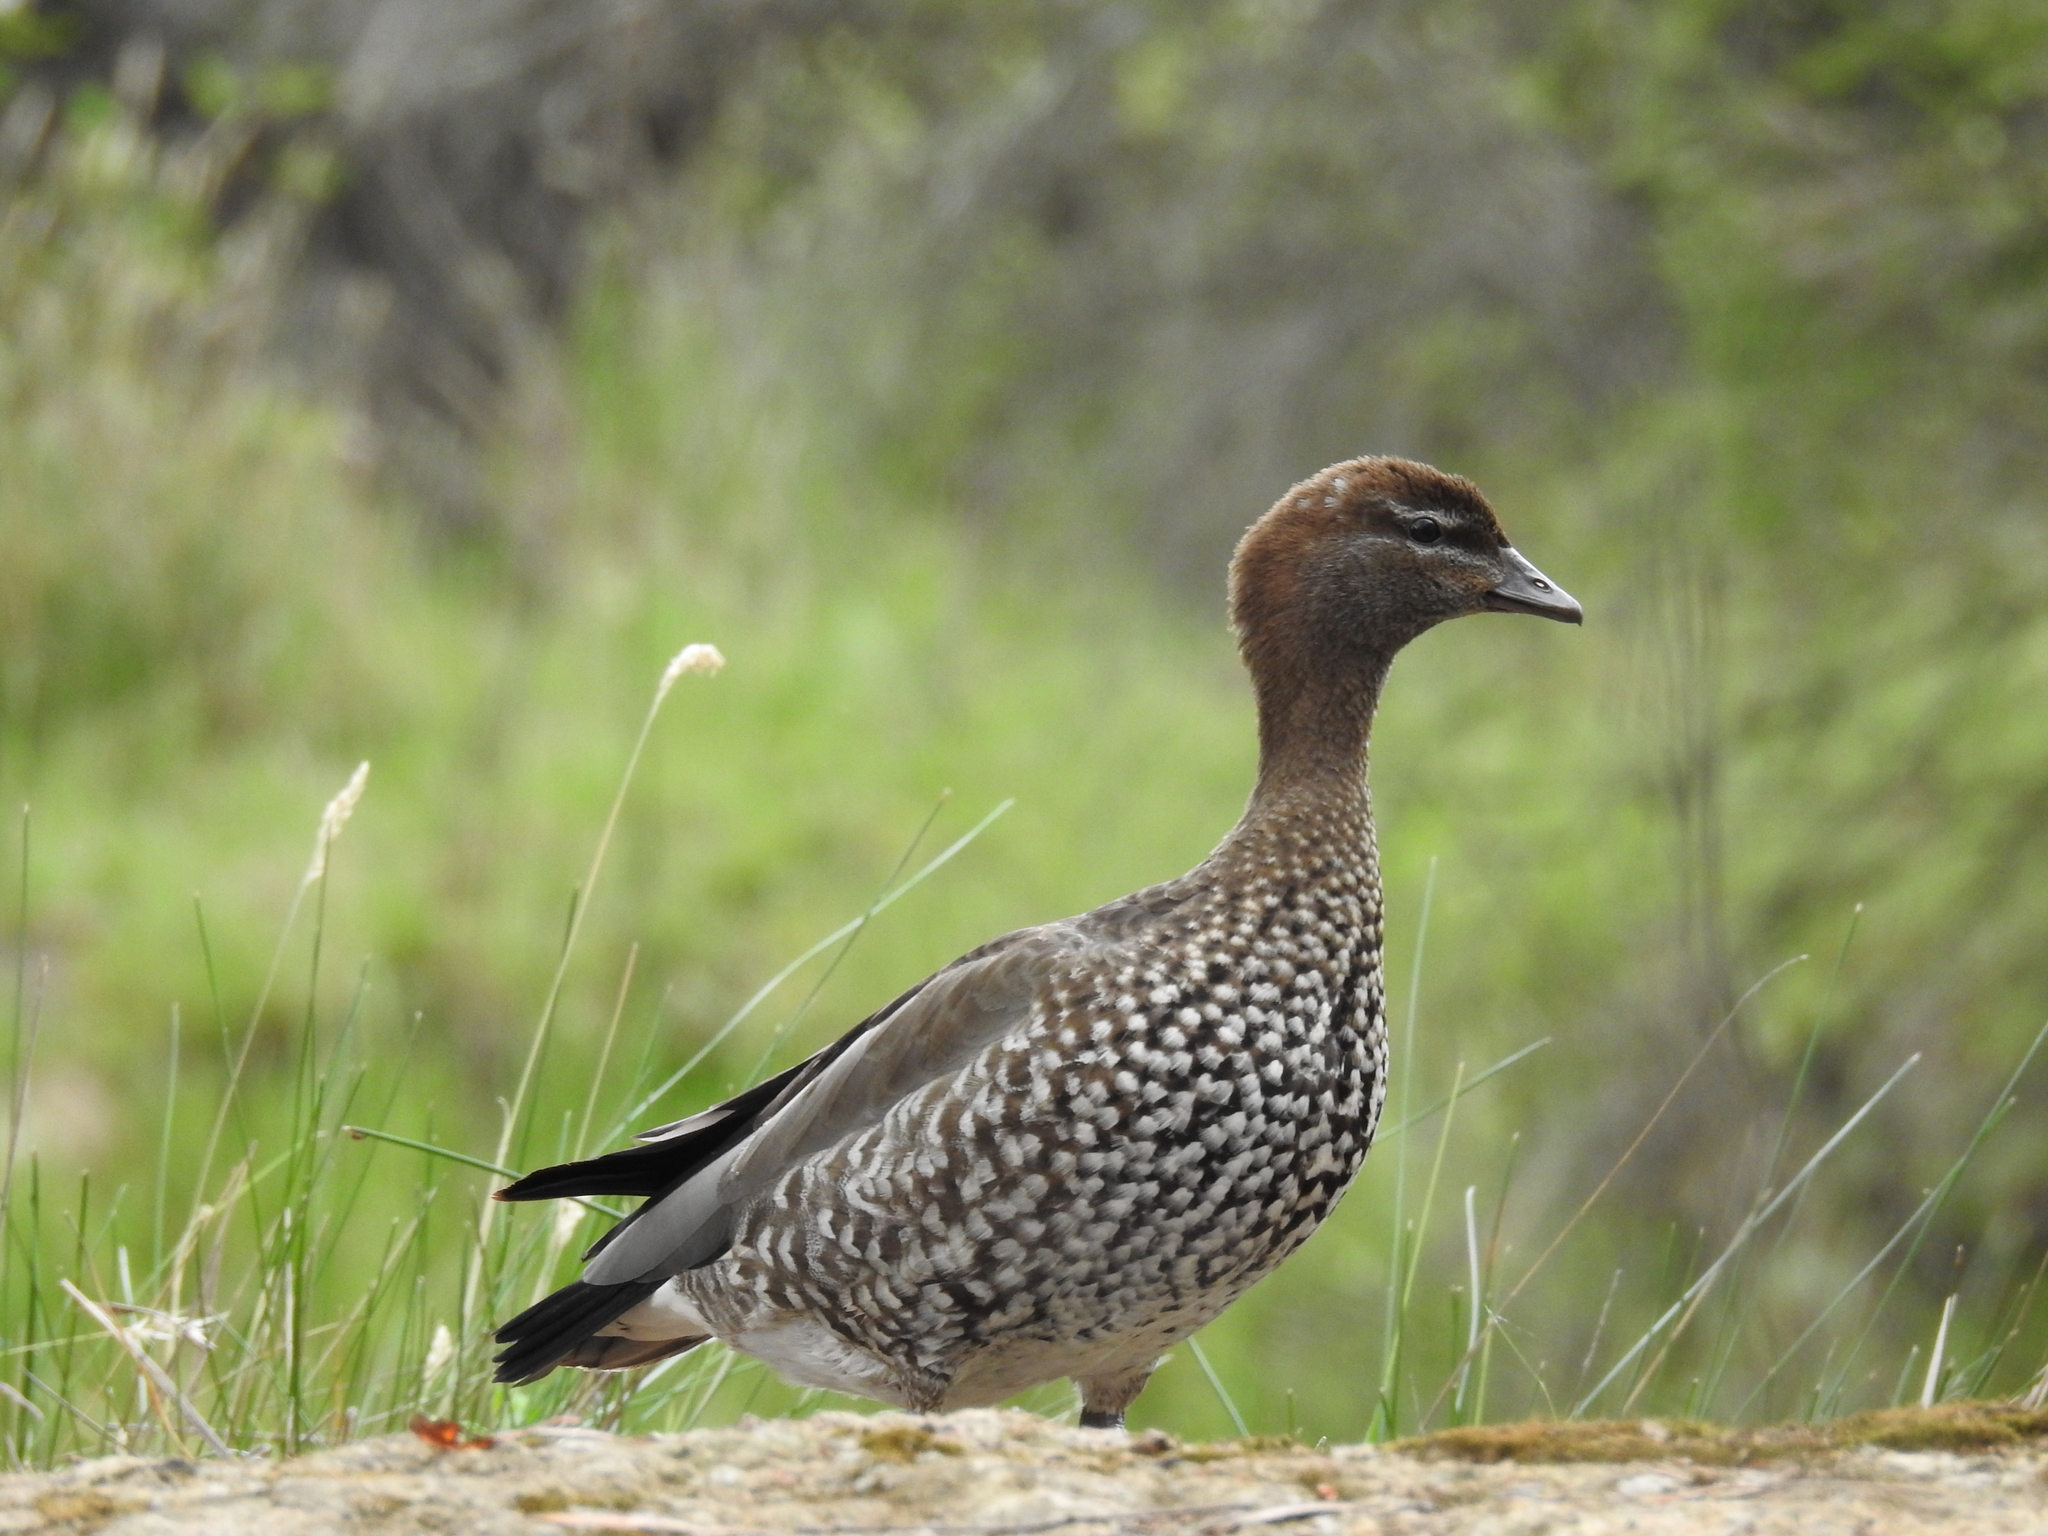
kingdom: Animalia
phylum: Chordata
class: Aves
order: Anseriformes
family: Anatidae
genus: Chenonetta
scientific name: Chenonetta jubata
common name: Maned duck
